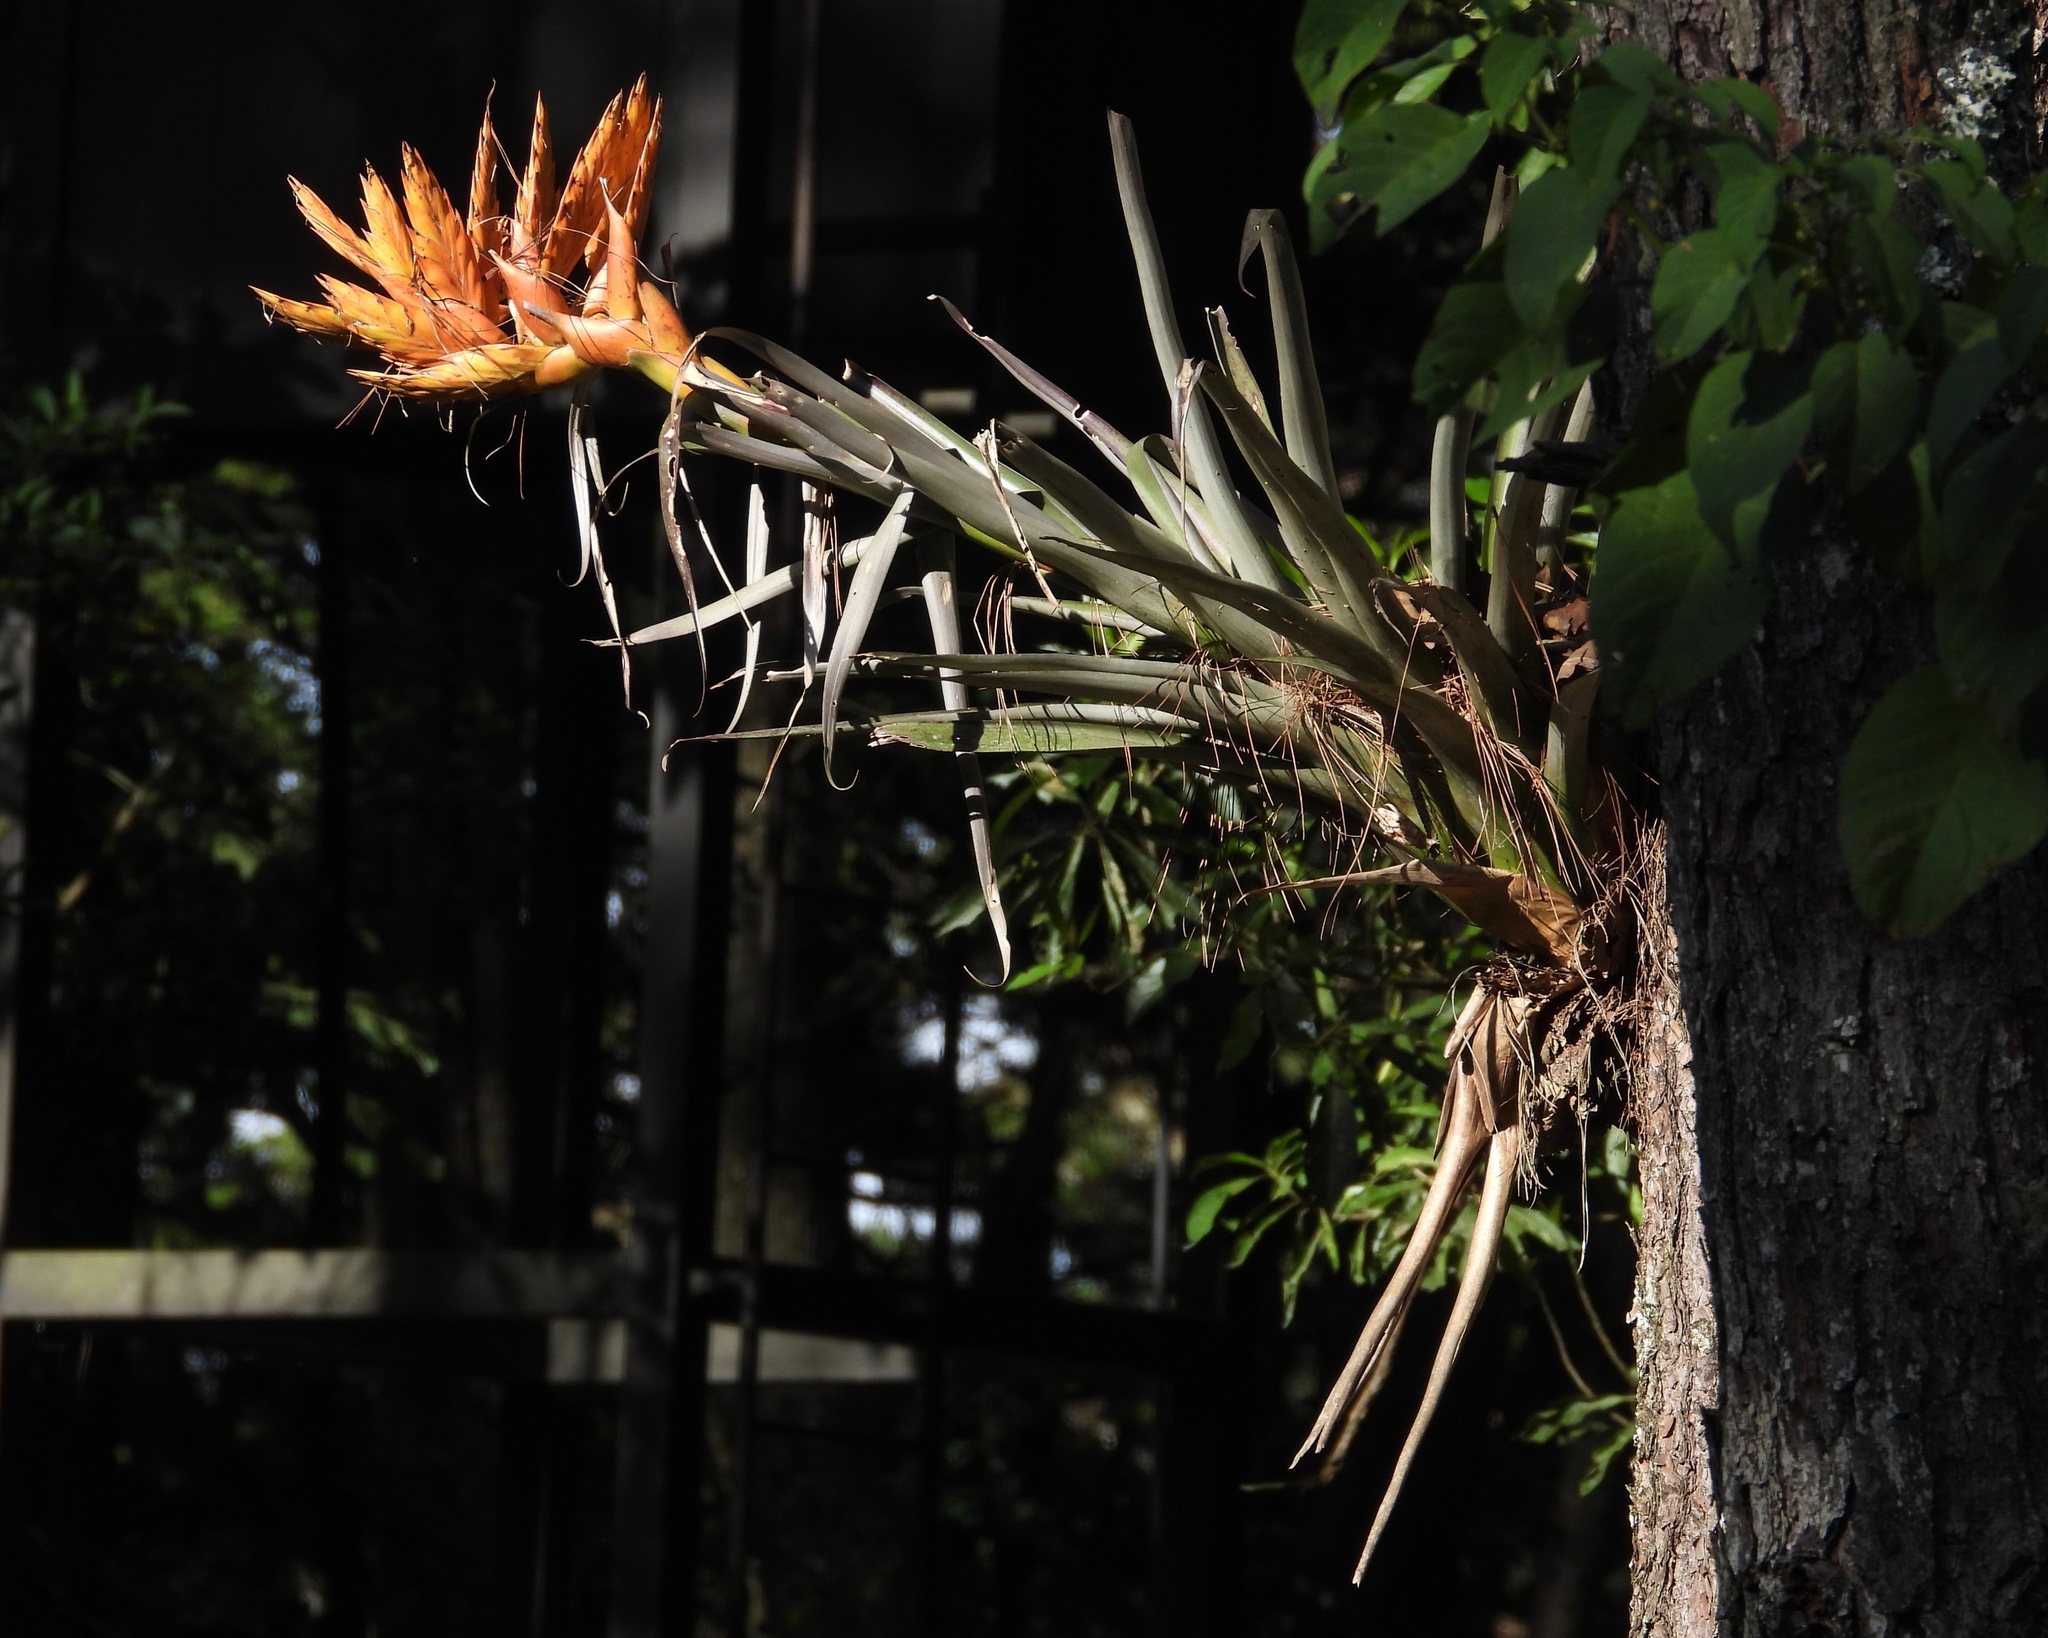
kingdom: Plantae
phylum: Tracheophyta
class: Liliopsida
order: Poales
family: Bromeliaceae
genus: Tillandsia
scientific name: Tillandsia ponderosa
